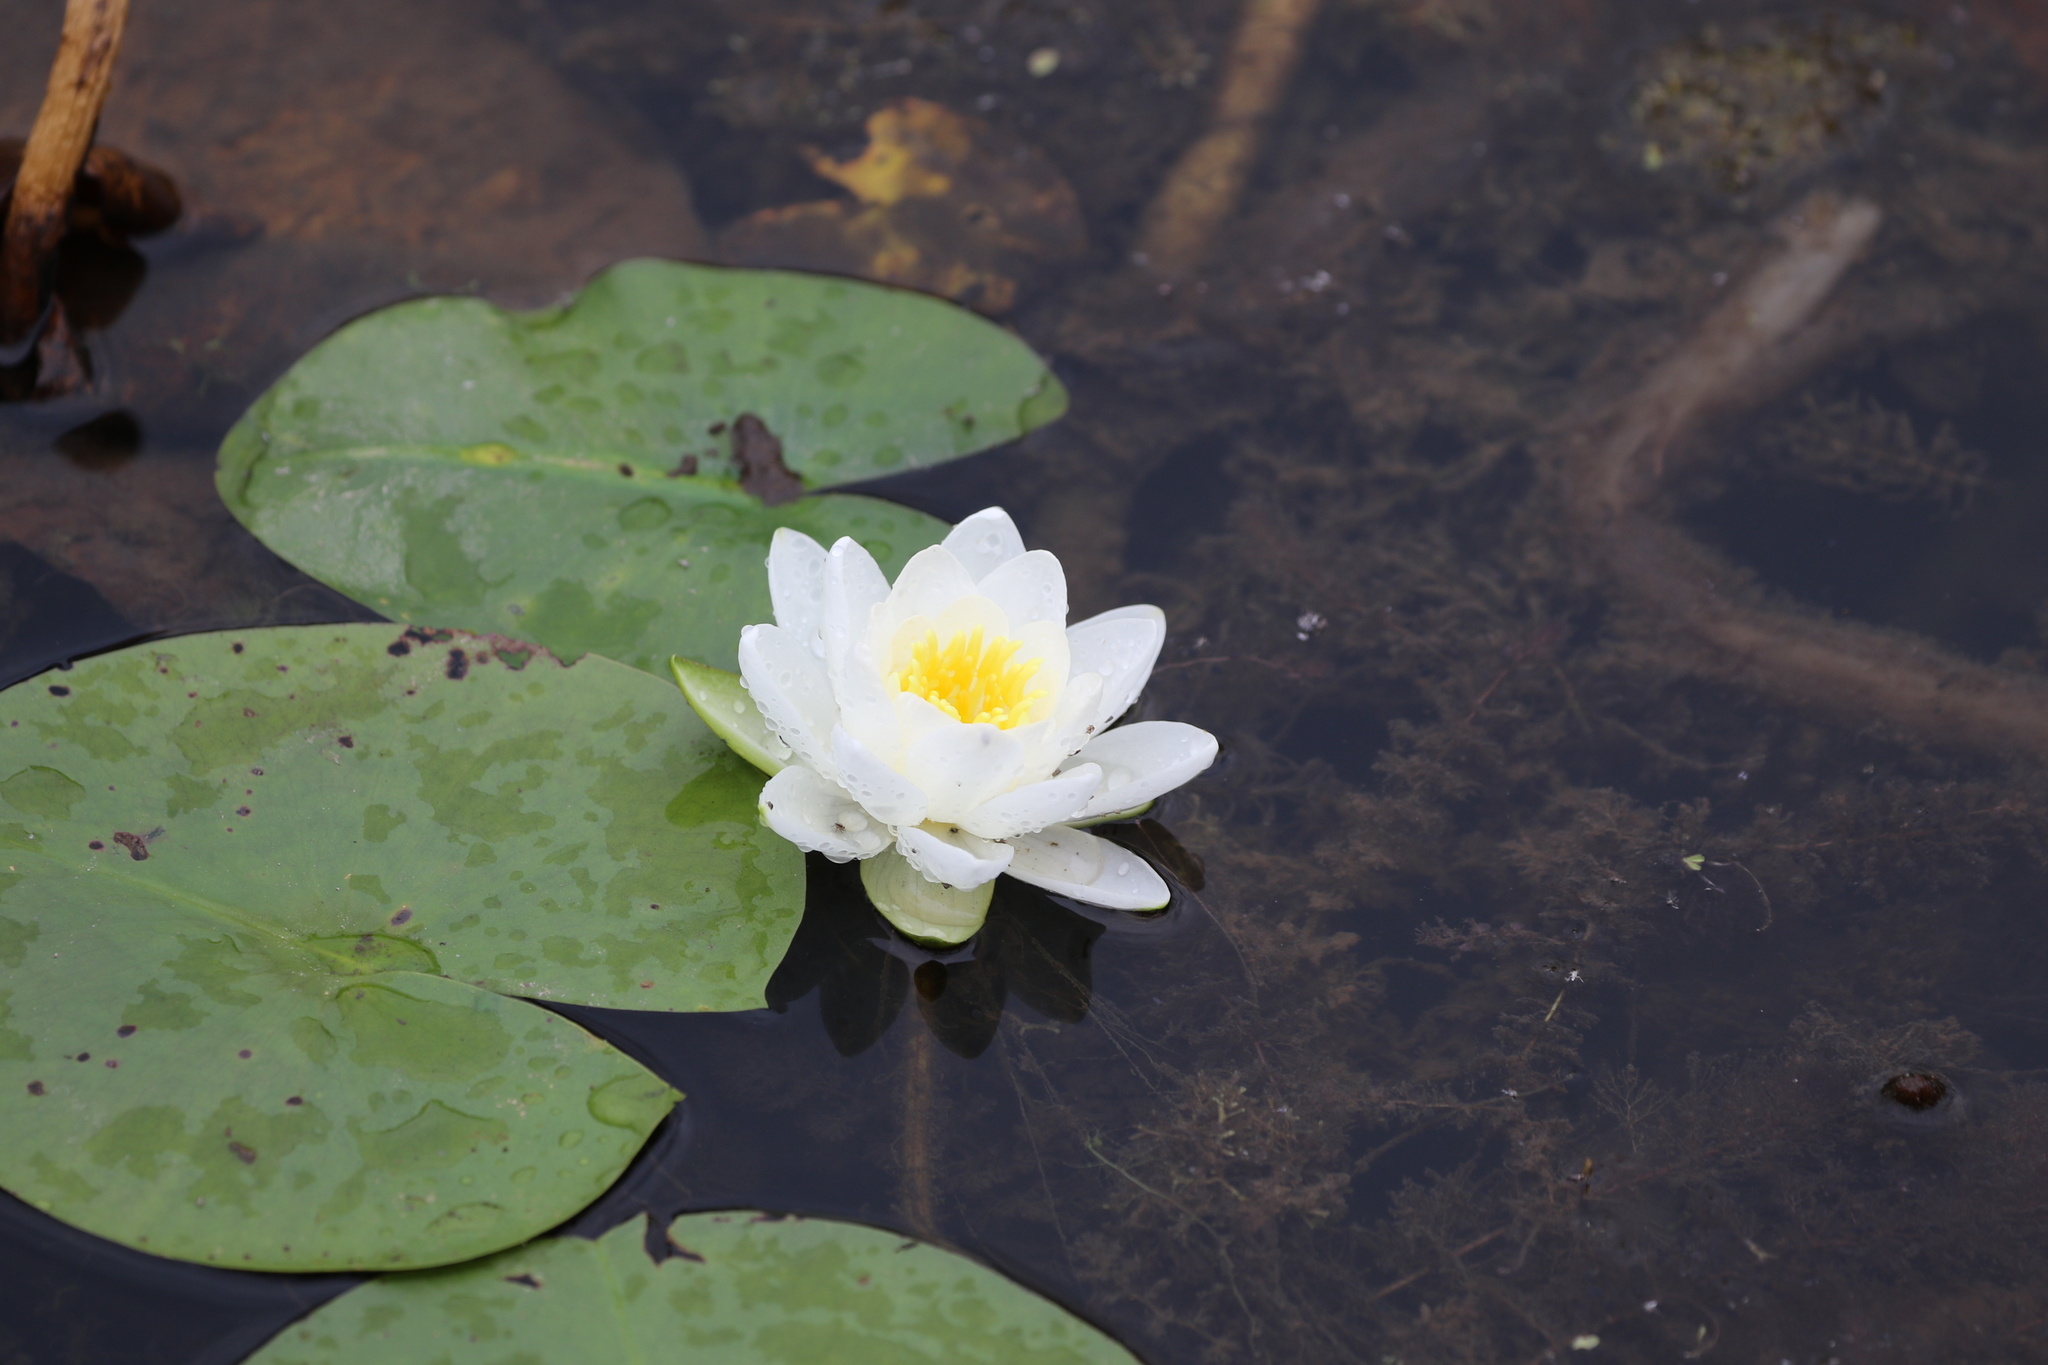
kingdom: Plantae
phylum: Tracheophyta
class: Magnoliopsida
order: Nymphaeales
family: Nymphaeaceae
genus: Nymphaea
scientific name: Nymphaea odorata
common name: Fragrant water-lily
